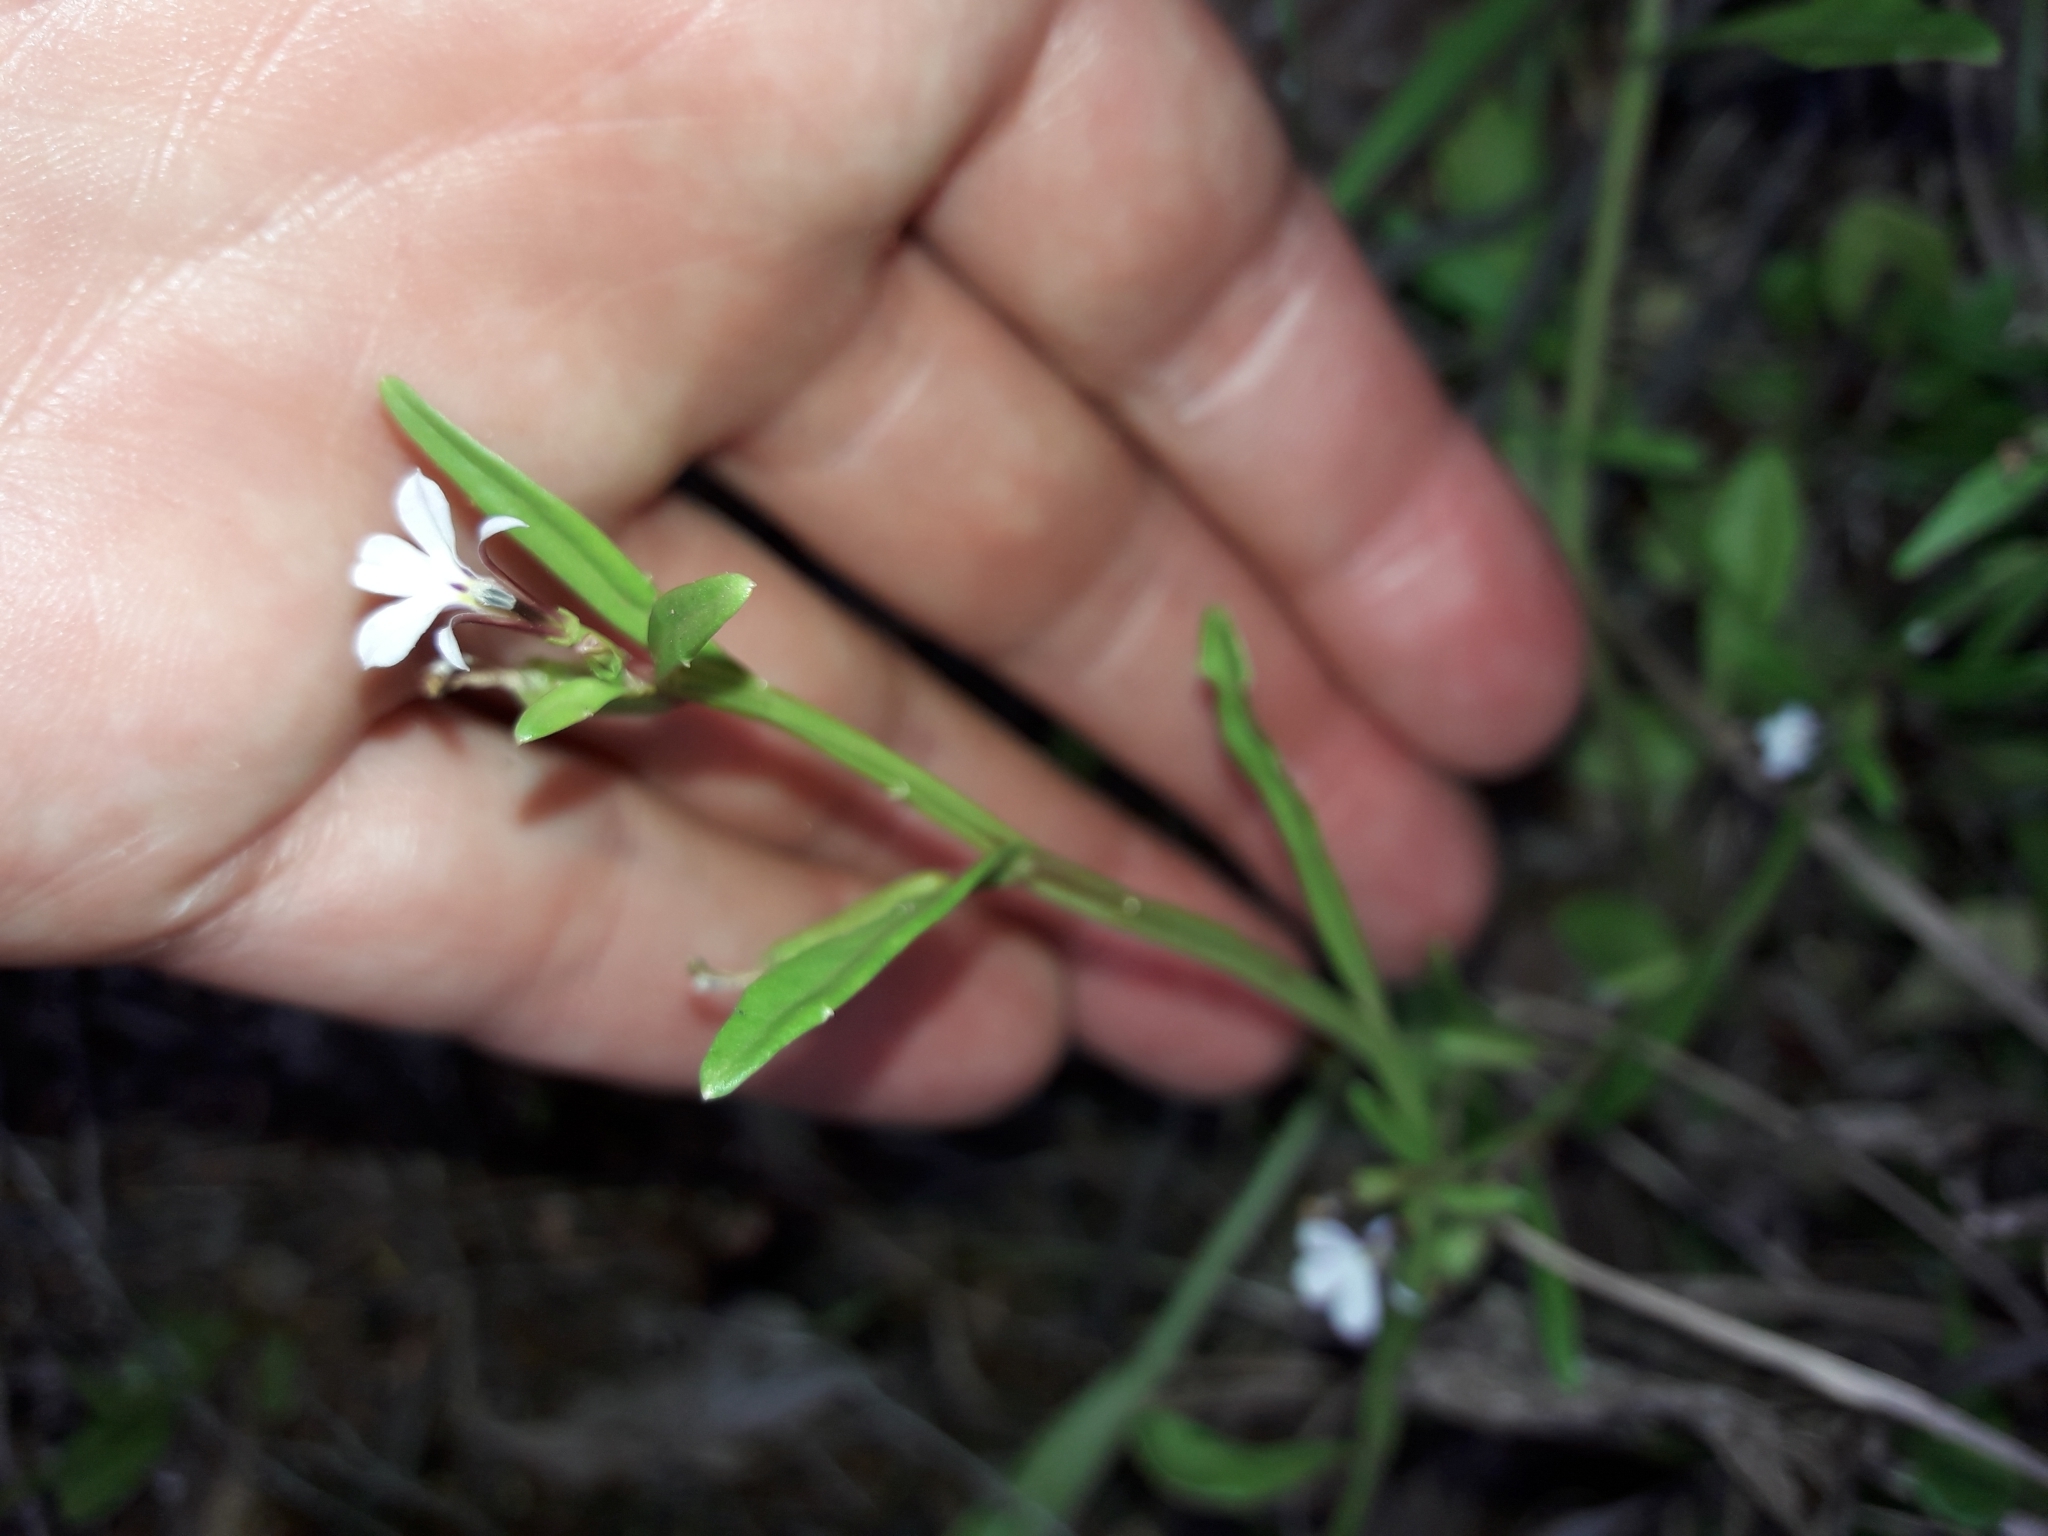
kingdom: Plantae
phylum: Tracheophyta
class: Magnoliopsida
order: Asterales
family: Campanulaceae
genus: Lobelia
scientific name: Lobelia anceps
